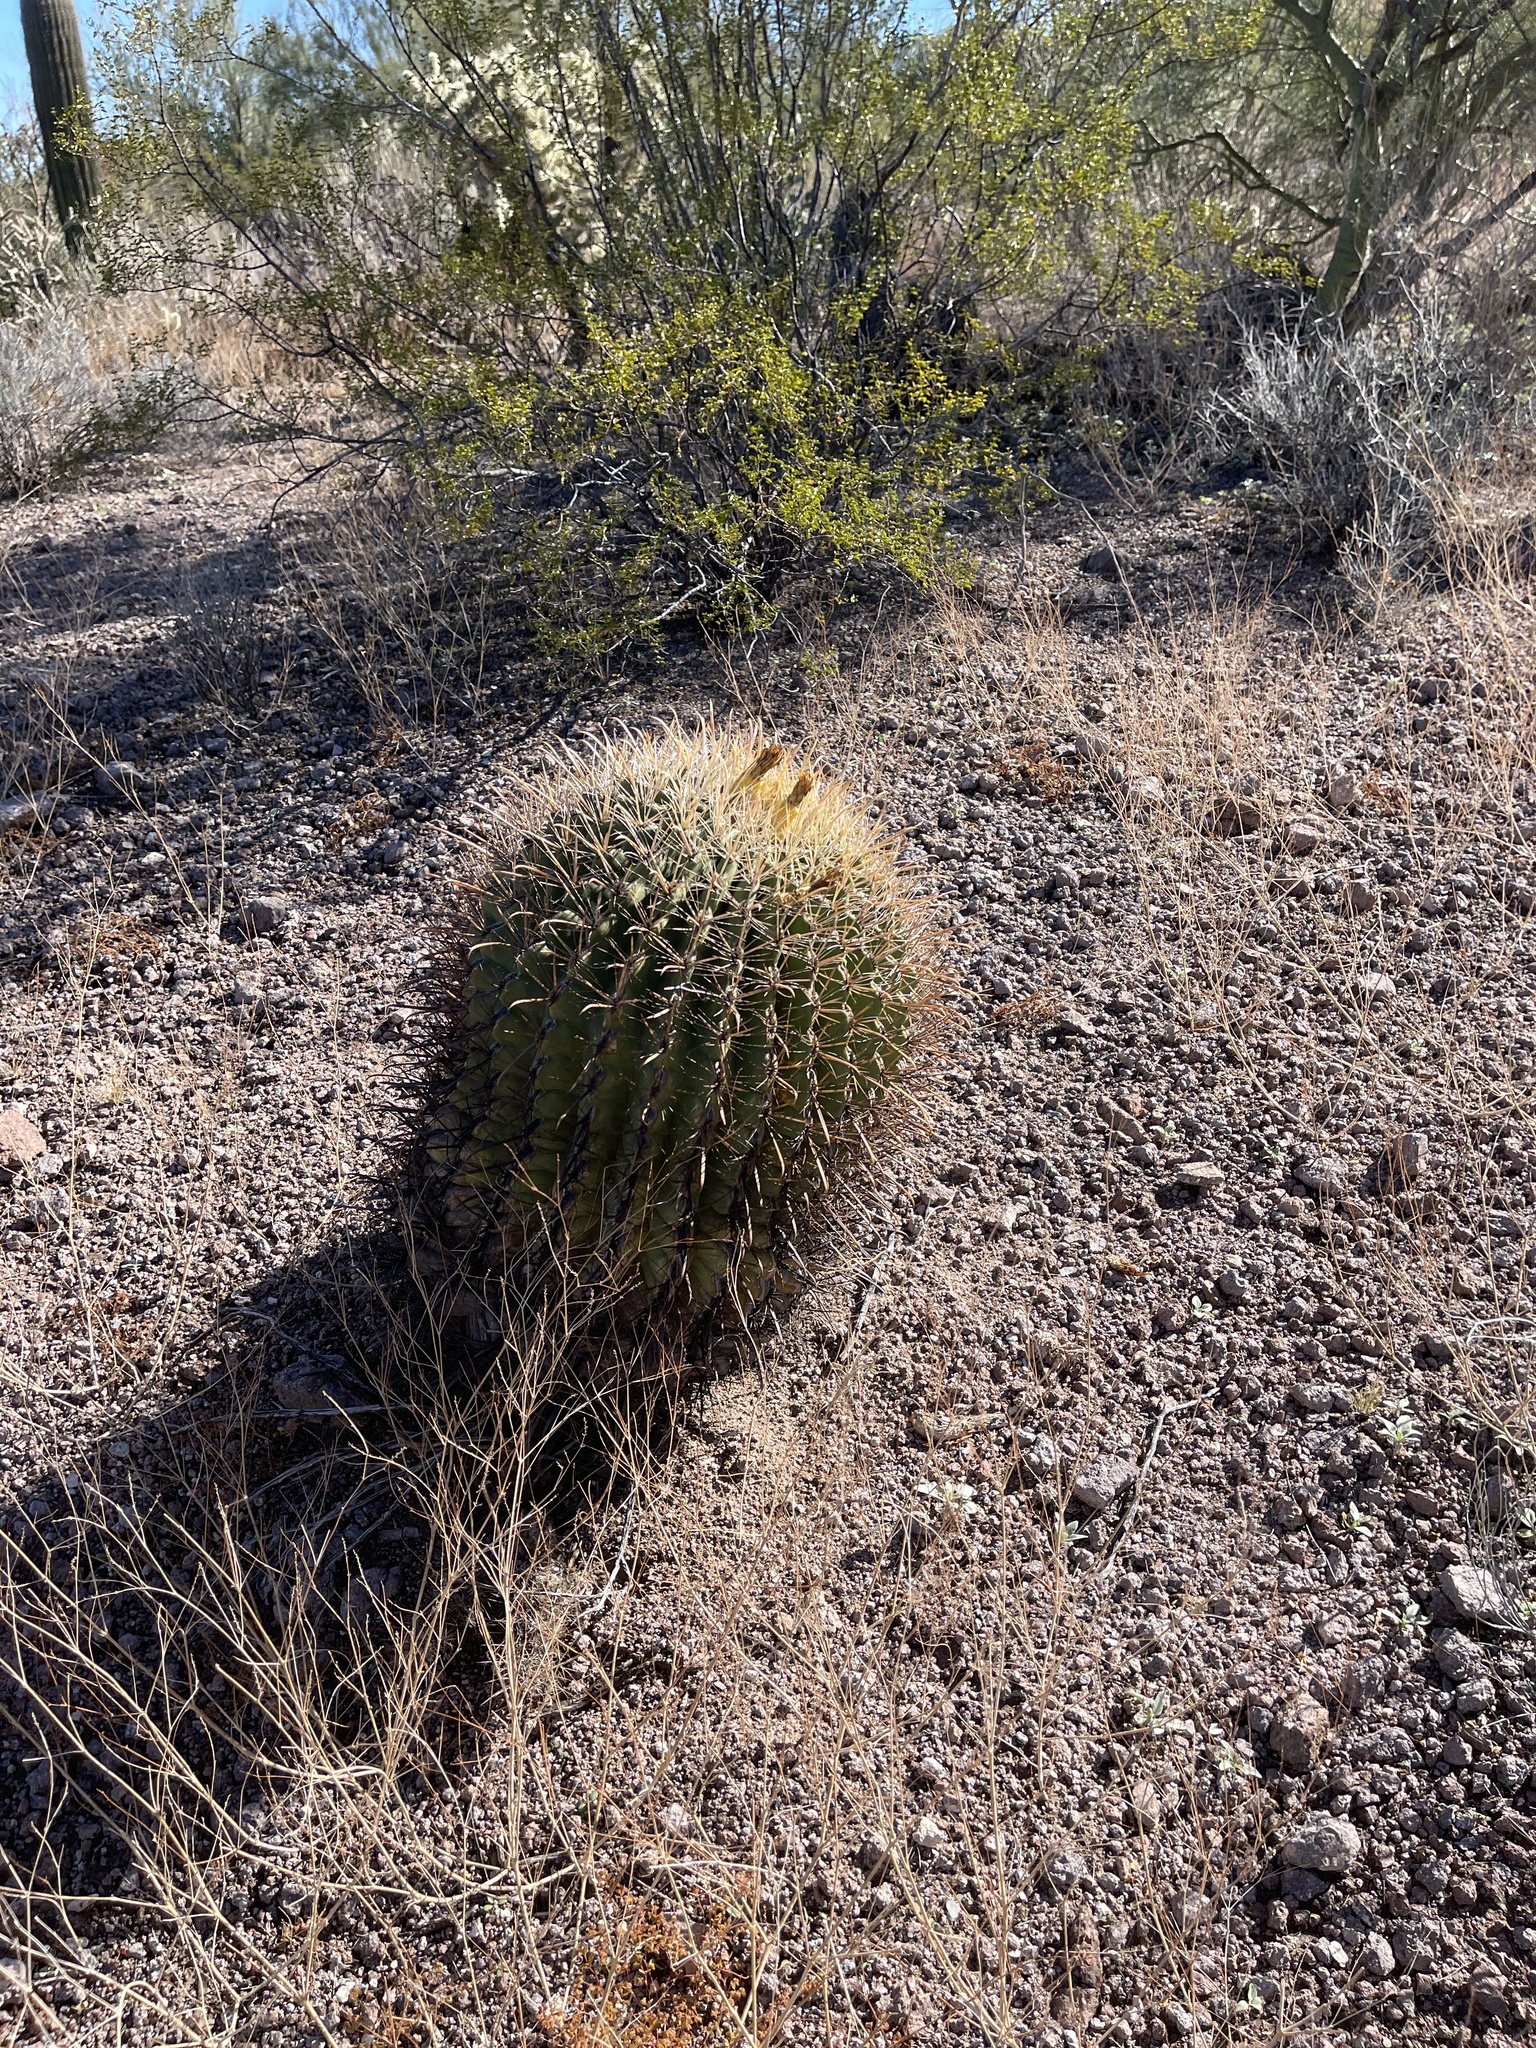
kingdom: Plantae
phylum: Tracheophyta
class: Magnoliopsida
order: Caryophyllales
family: Cactaceae
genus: Ferocactus
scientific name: Ferocactus wislizeni
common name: Candy barrel cactus
